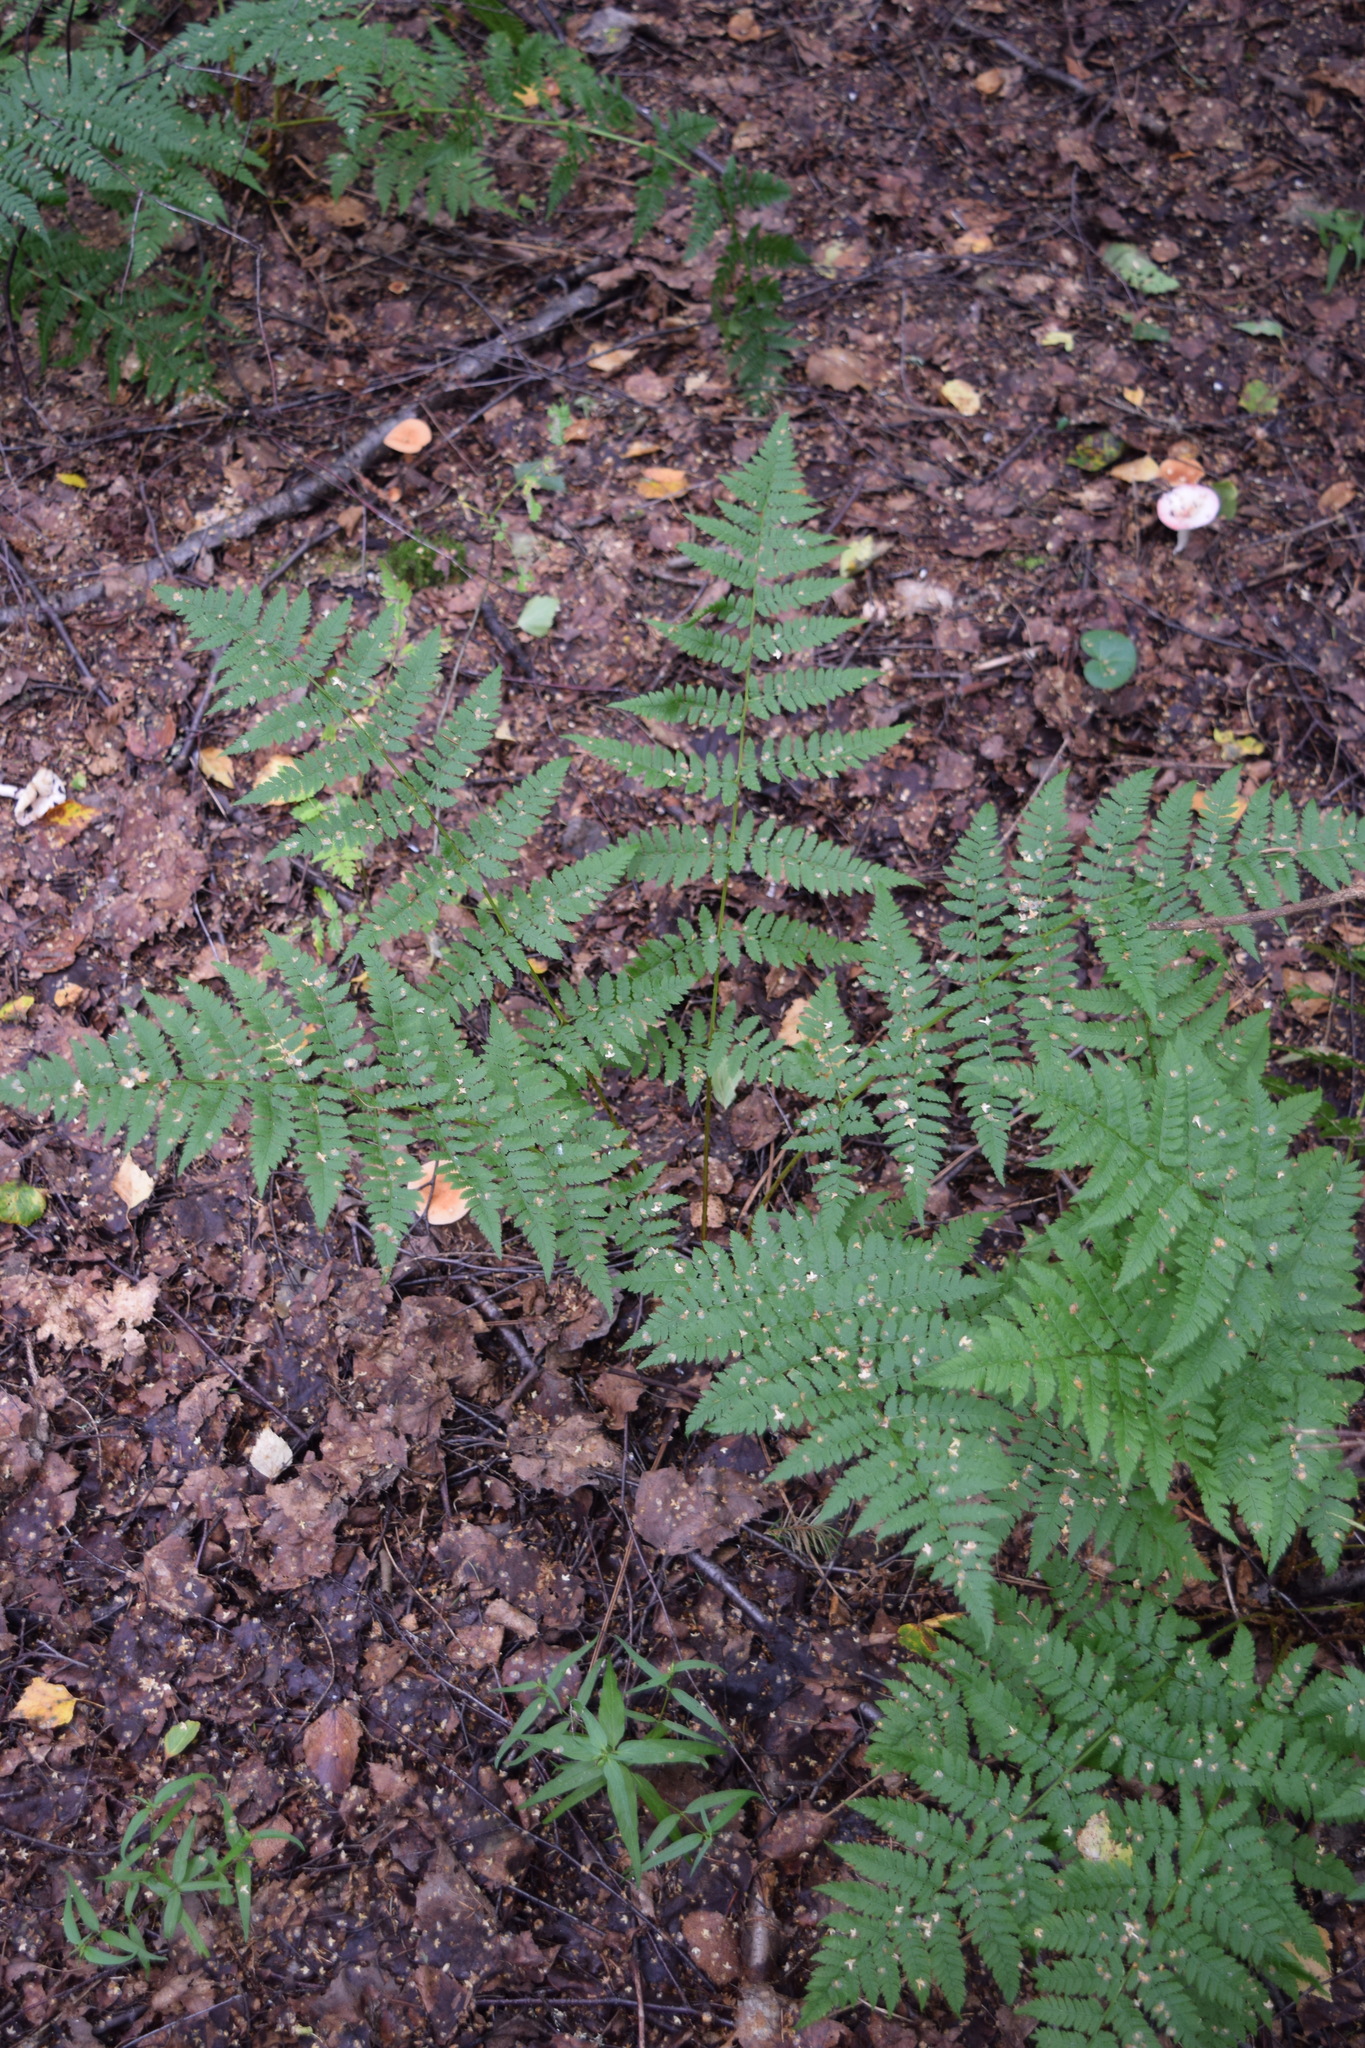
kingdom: Plantae
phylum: Tracheophyta
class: Polypodiopsida
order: Polypodiales
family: Dryopteridaceae
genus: Dryopteris
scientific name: Dryopteris carthusiana
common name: Narrow buckler-fern
